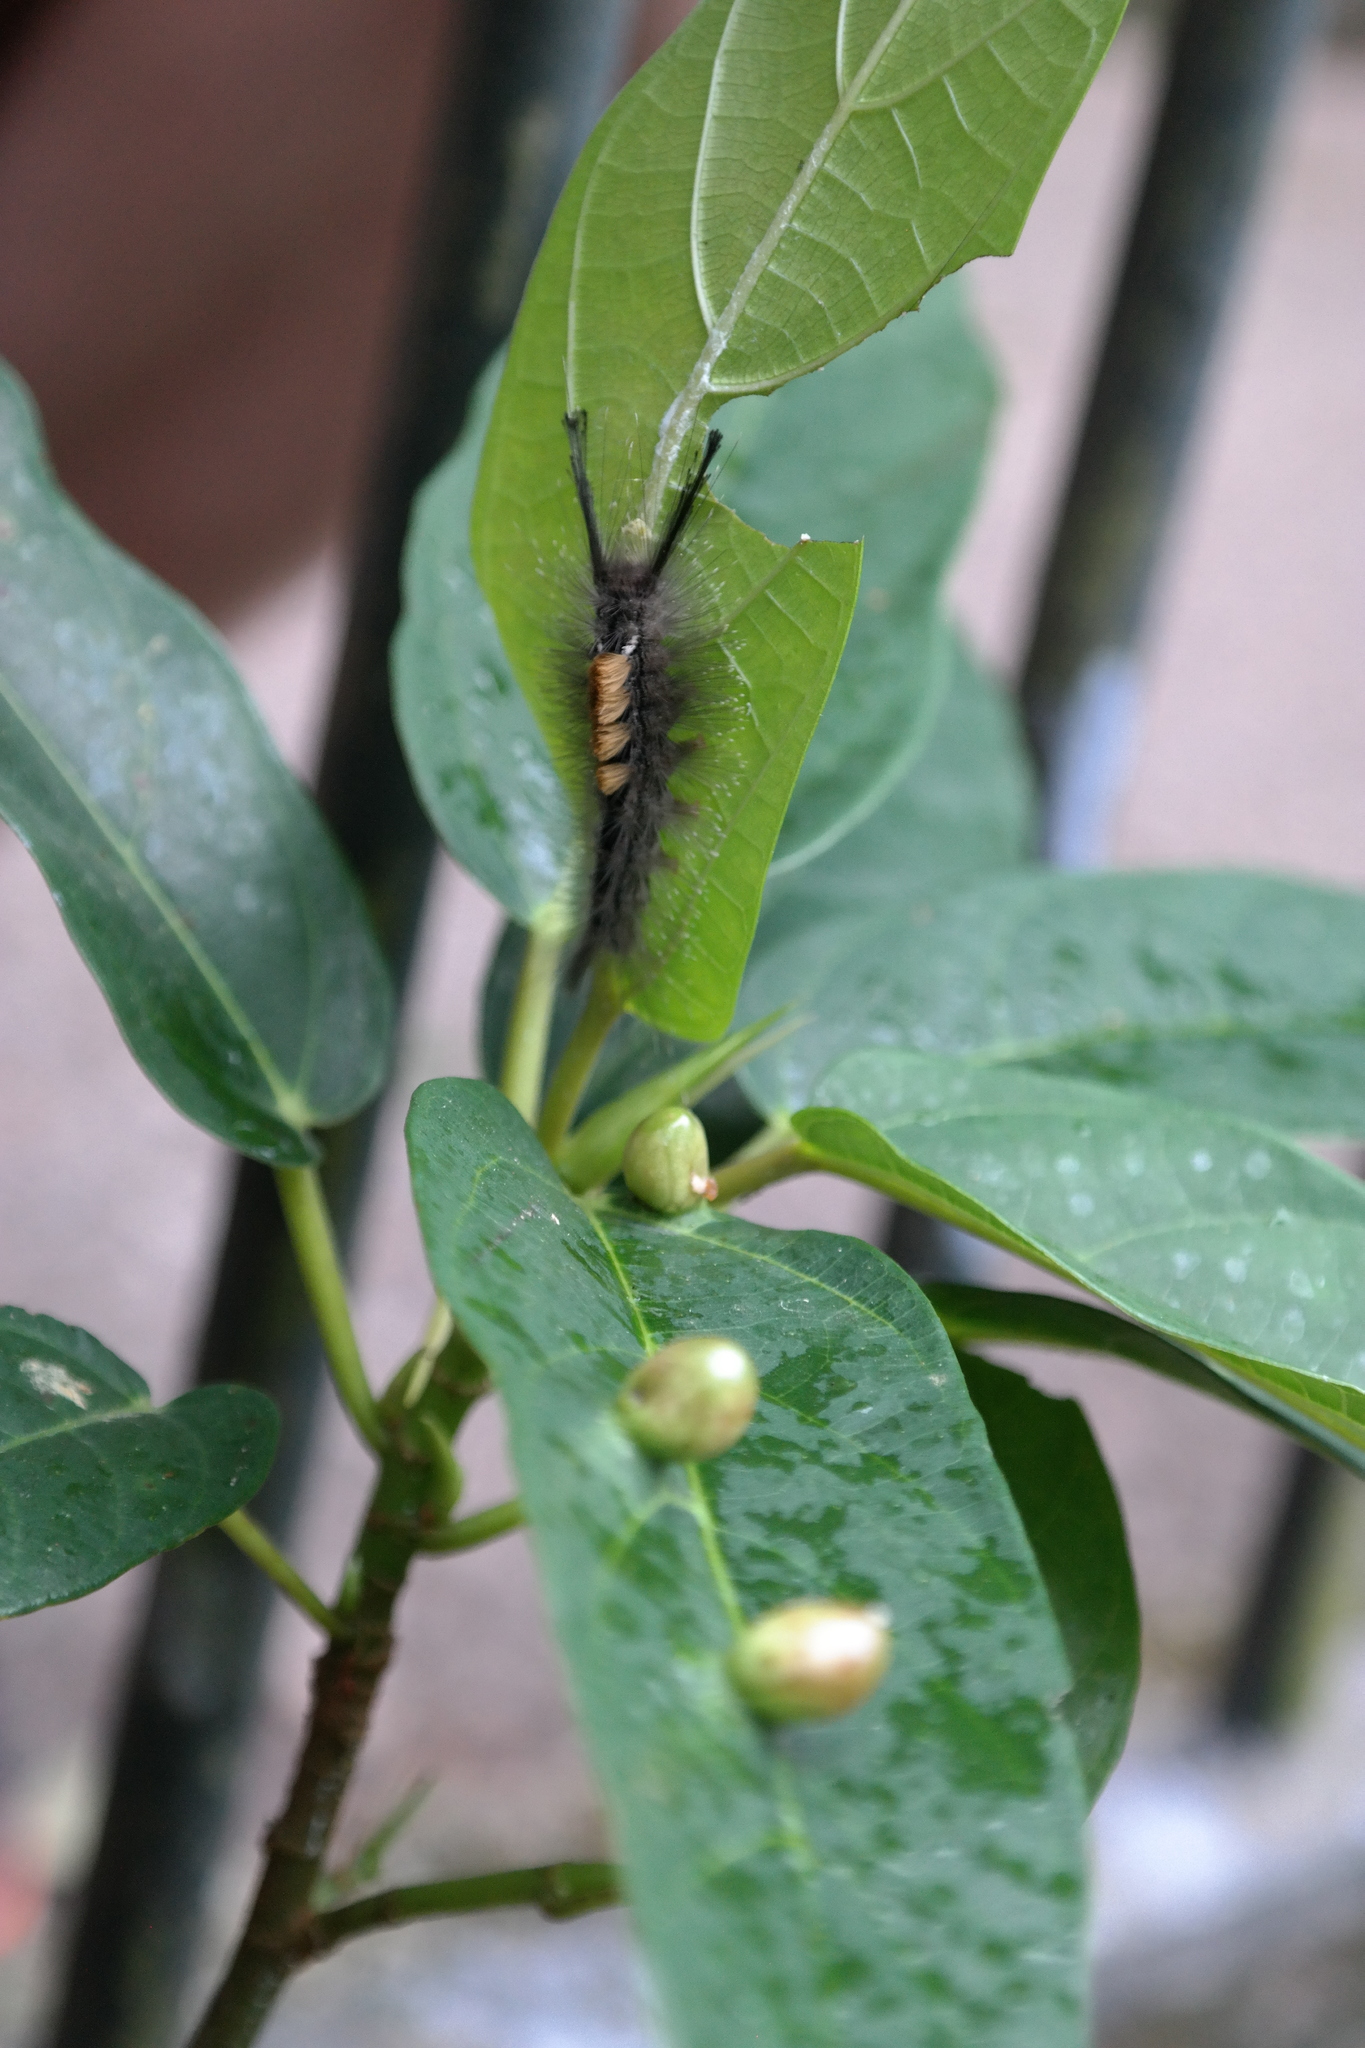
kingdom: Animalia
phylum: Arthropoda
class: Insecta
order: Lepidoptera
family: Erebidae
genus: Dasychira
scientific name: Dasychira chekiangensis
